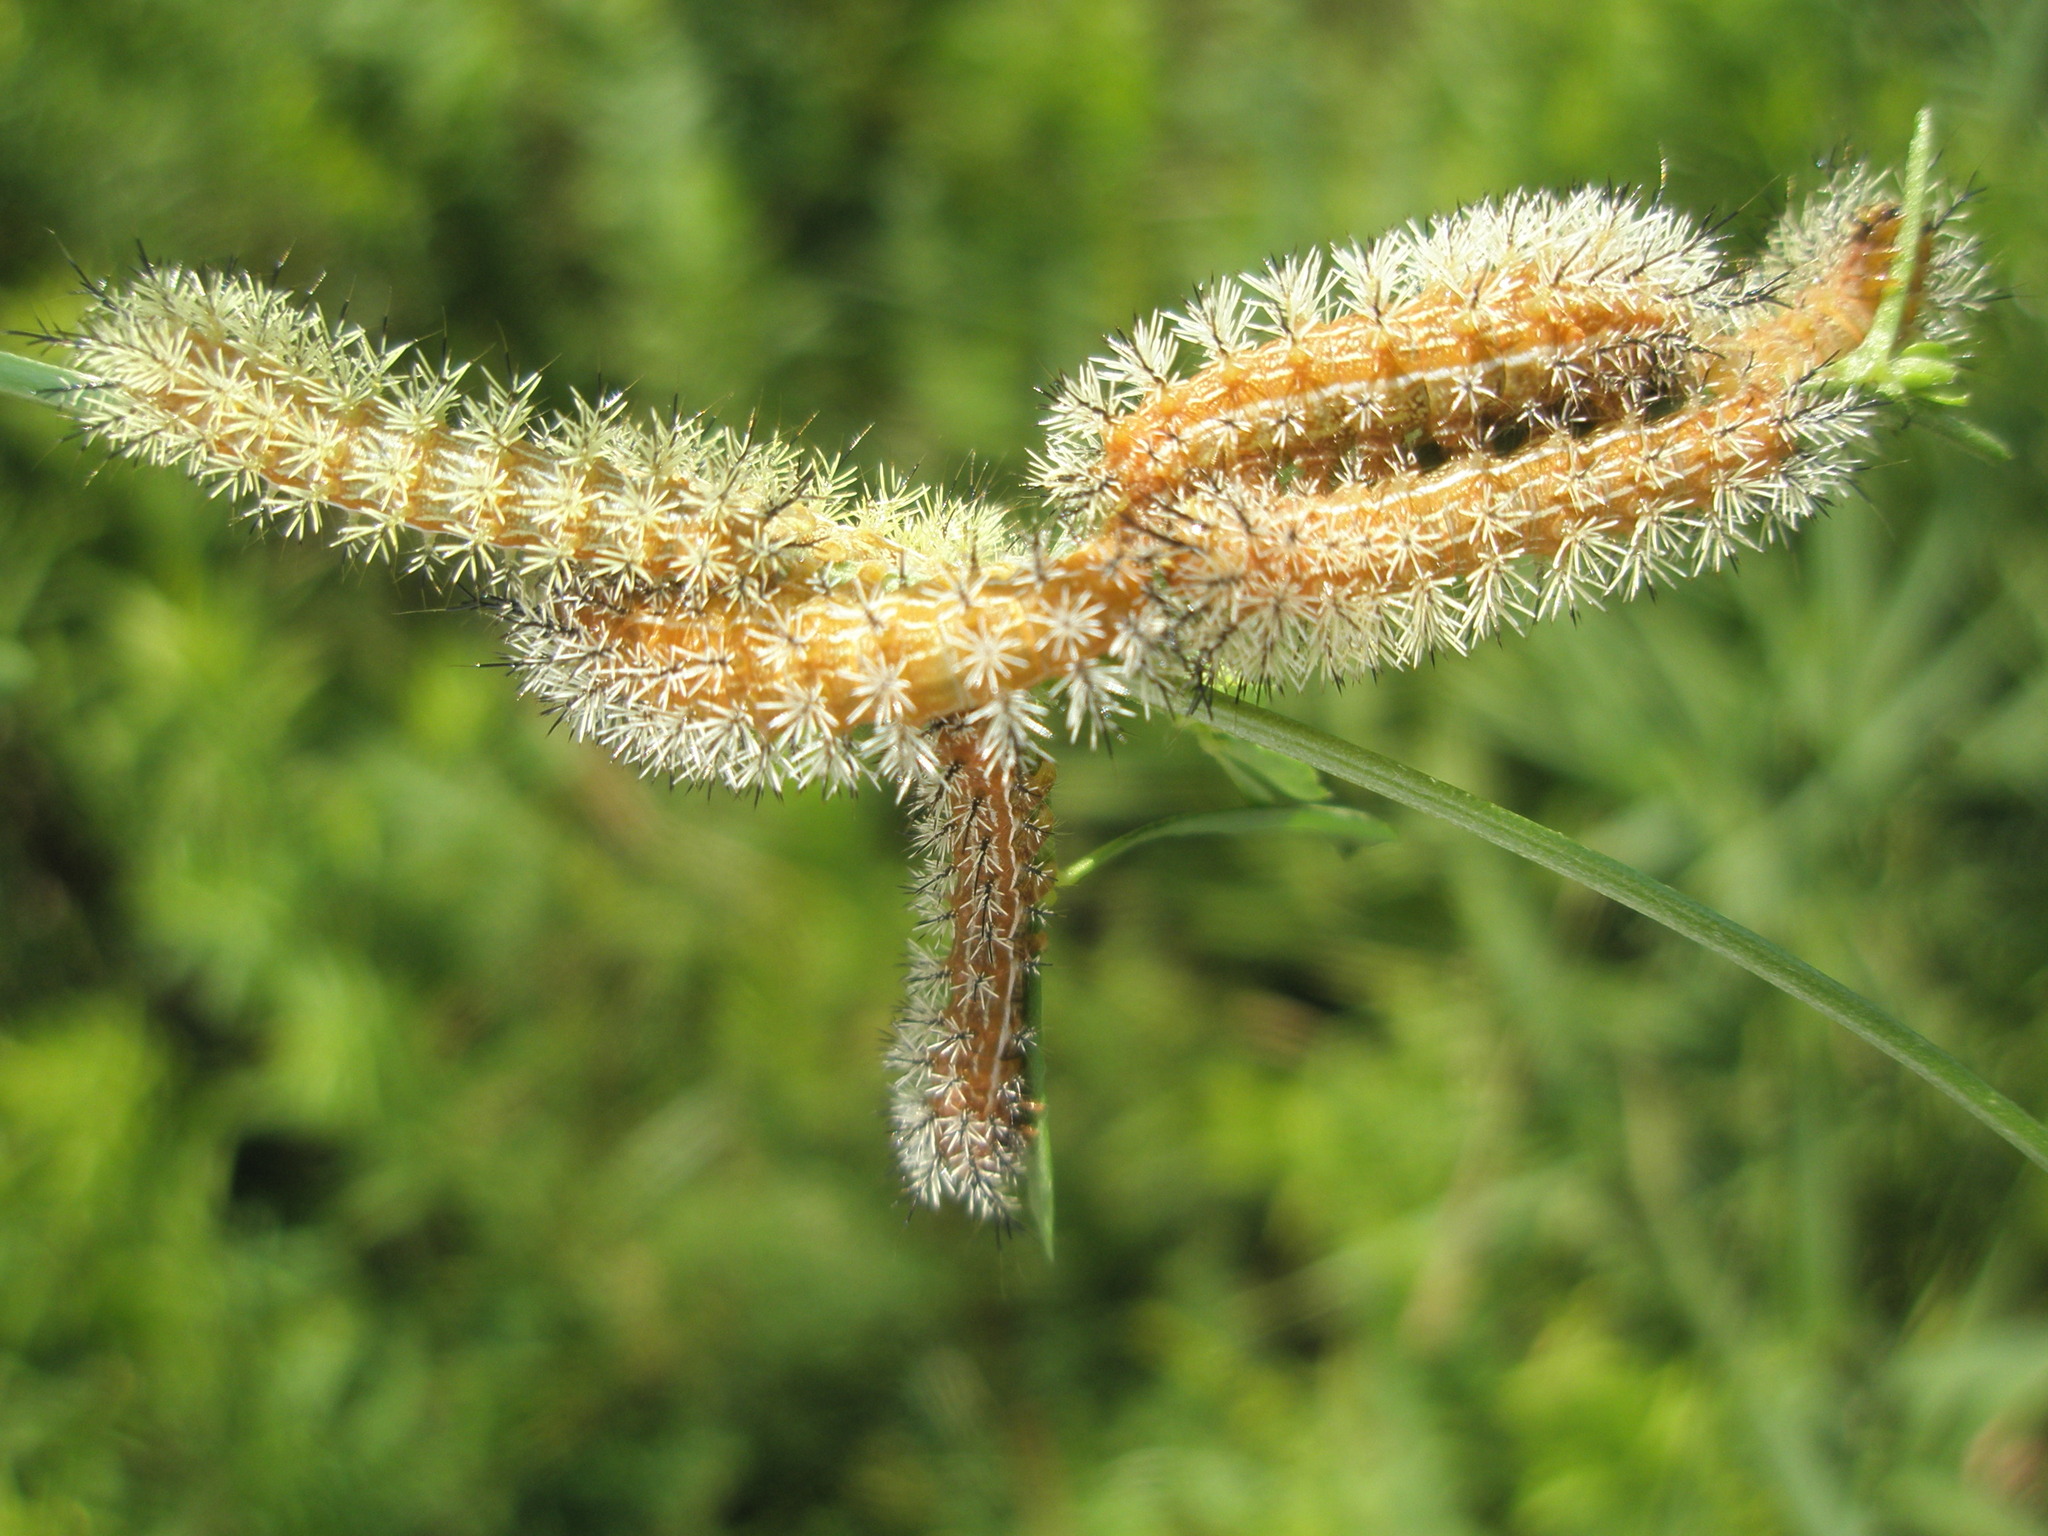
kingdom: Animalia
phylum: Arthropoda
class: Insecta
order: Lepidoptera
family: Saturniidae
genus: Automeris
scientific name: Automeris io
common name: Io moth
